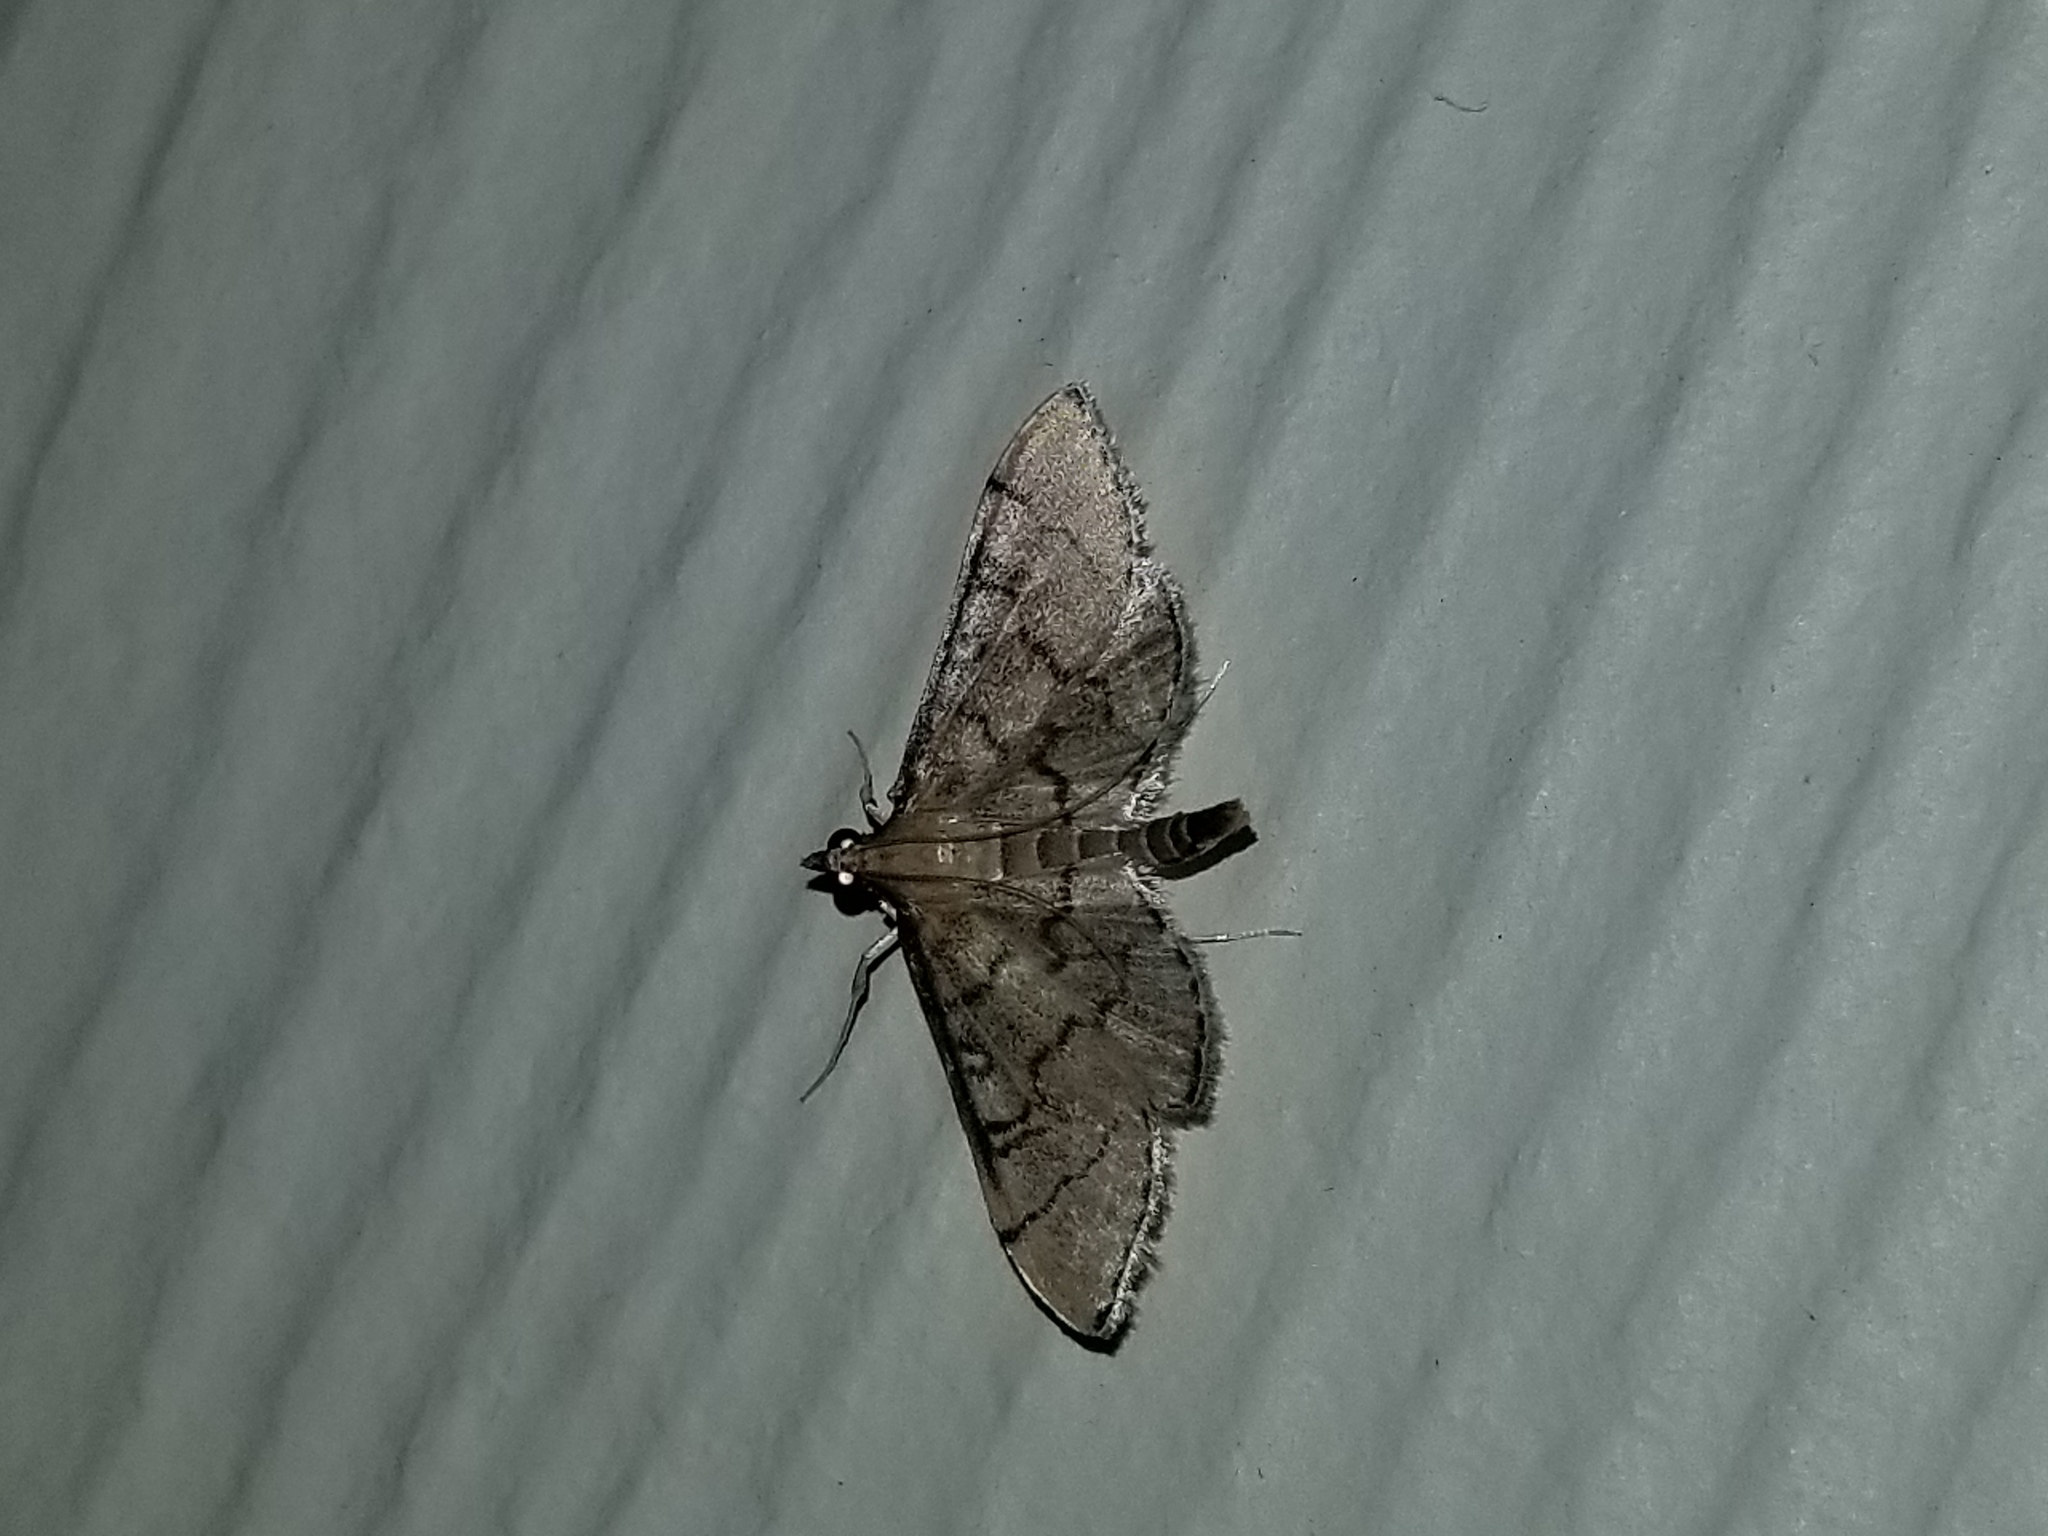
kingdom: Animalia
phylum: Arthropoda
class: Insecta
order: Lepidoptera
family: Crambidae
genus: Lamprosema
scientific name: Lamprosema Blepharomastix ranalis
